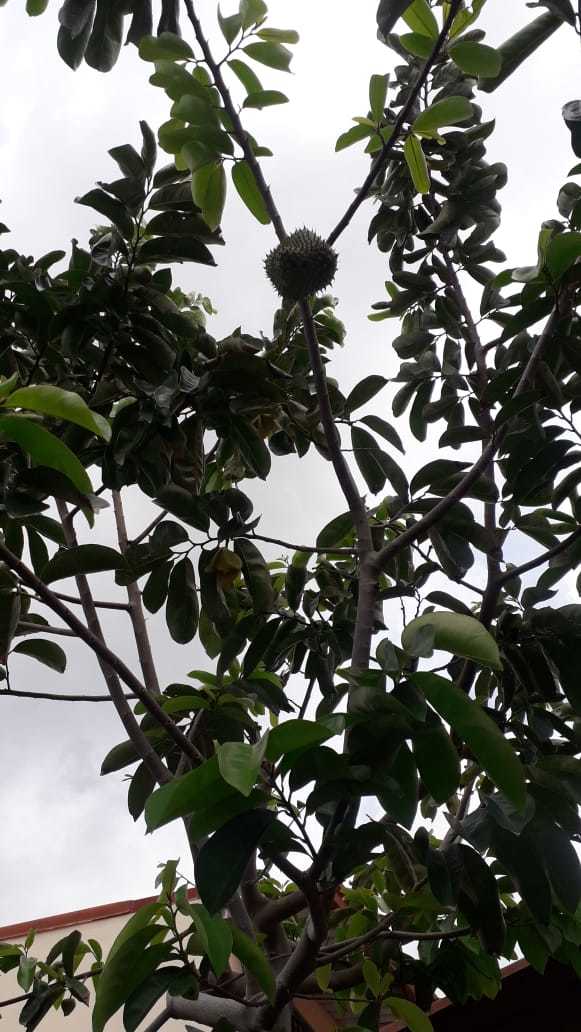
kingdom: Plantae
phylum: Tracheophyta
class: Magnoliopsida
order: Magnoliales
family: Annonaceae
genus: Annona
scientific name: Annona muricata
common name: Soursop
